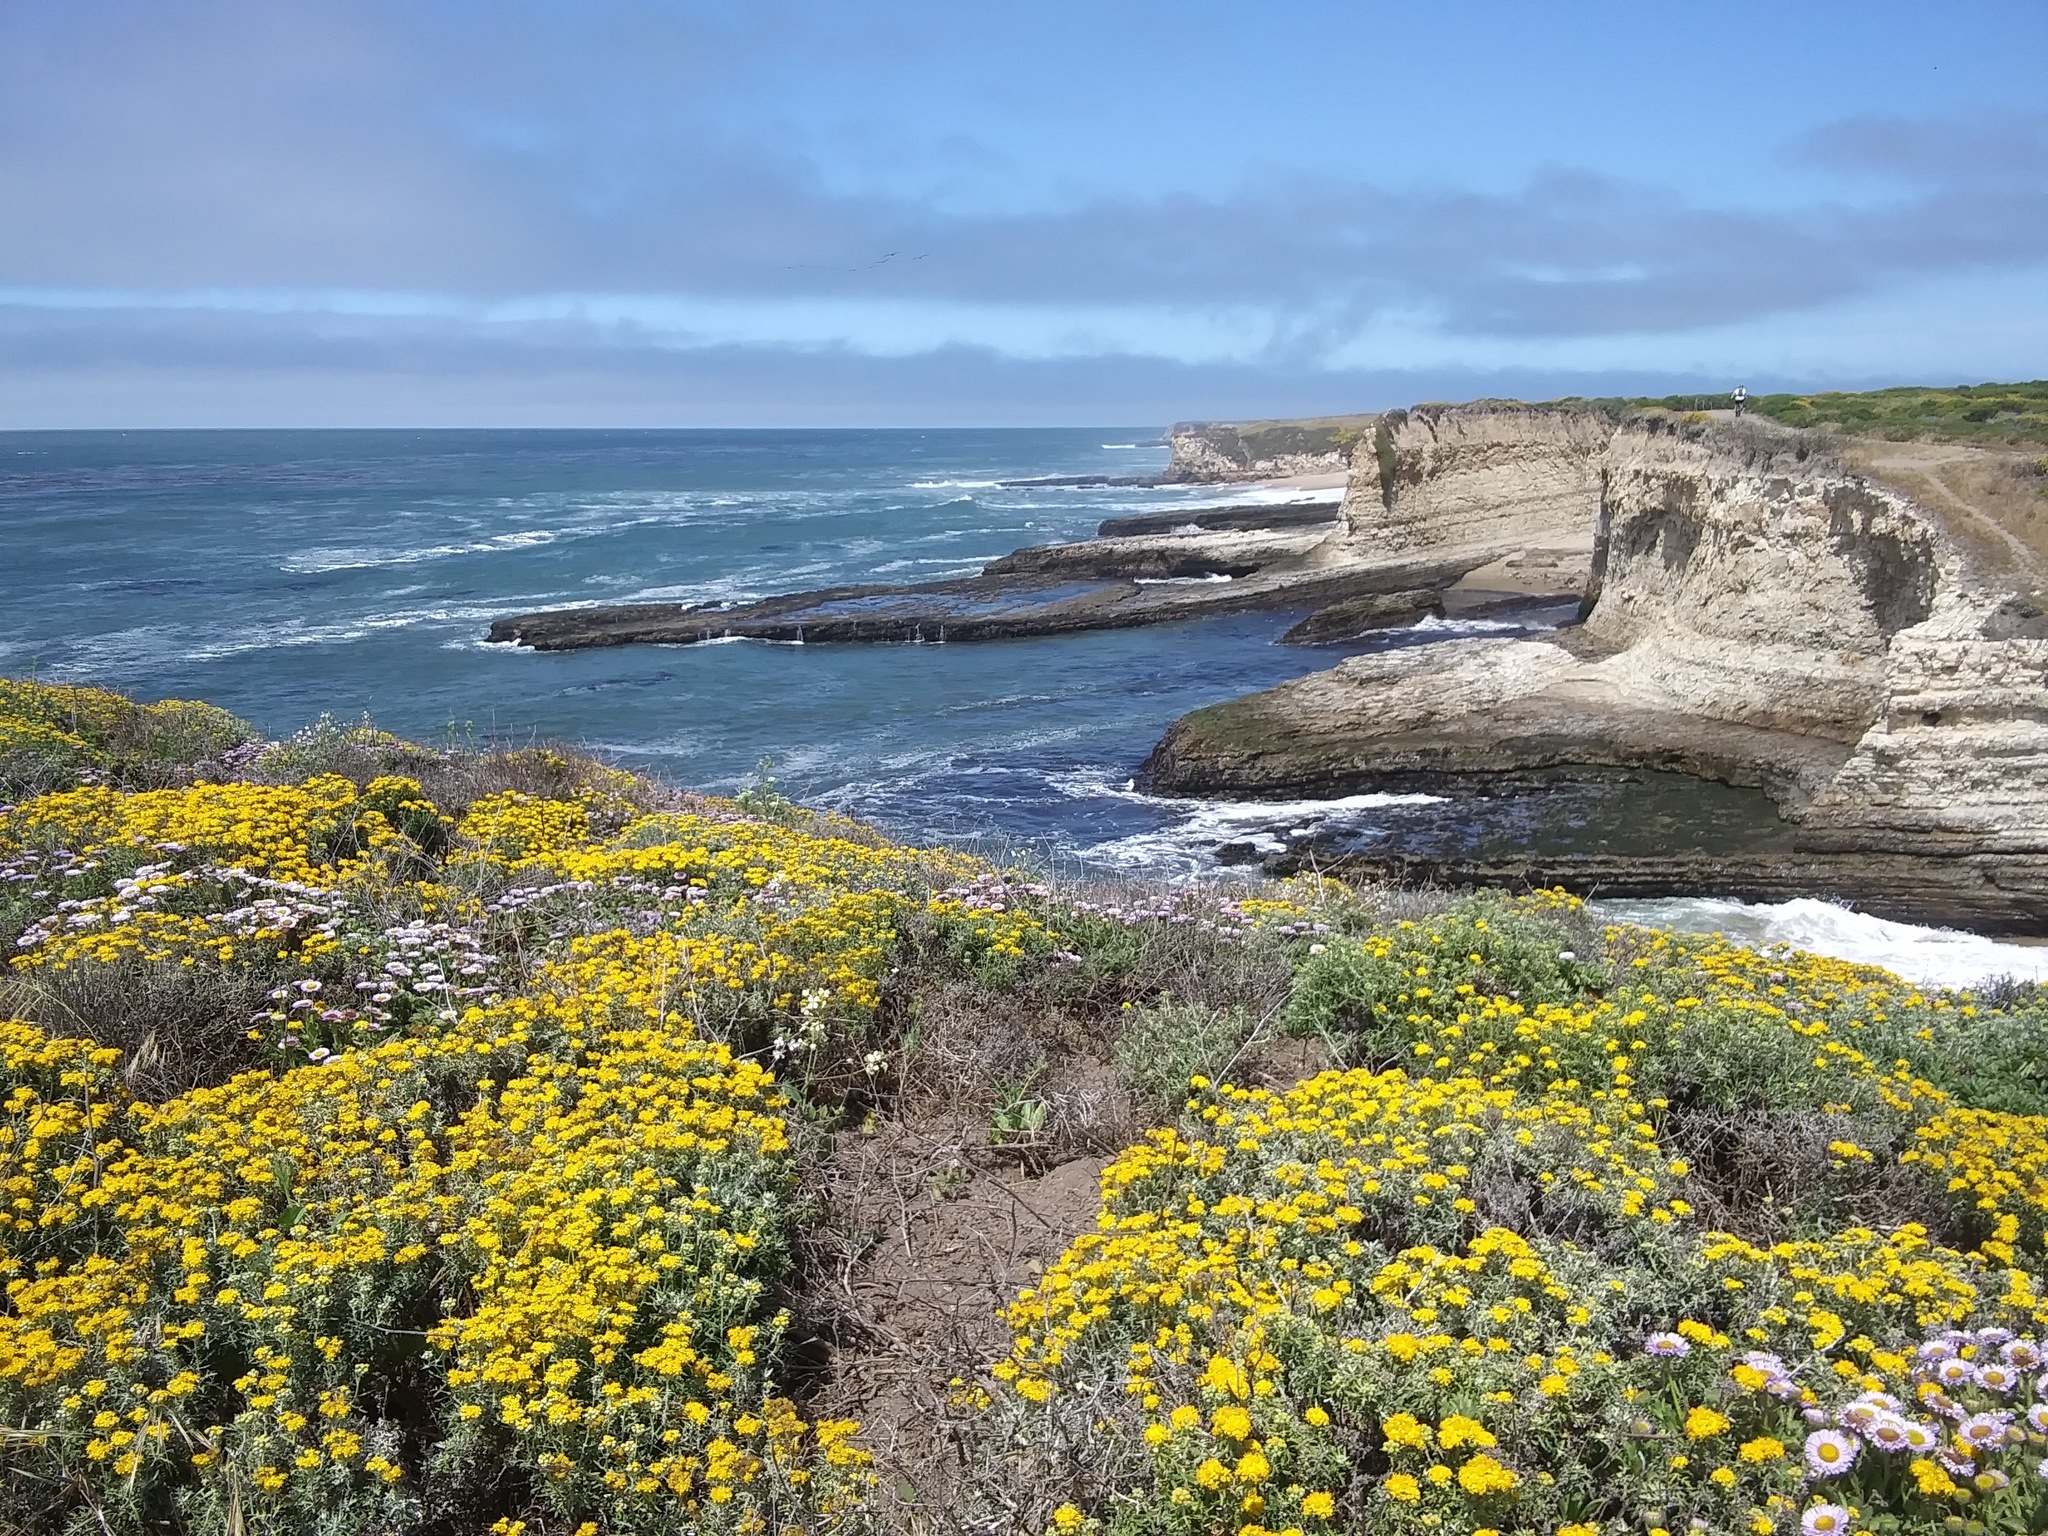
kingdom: Plantae
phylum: Tracheophyta
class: Magnoliopsida
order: Asterales
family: Asteraceae
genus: Eriophyllum
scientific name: Eriophyllum staechadifolium
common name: Lizardtail
